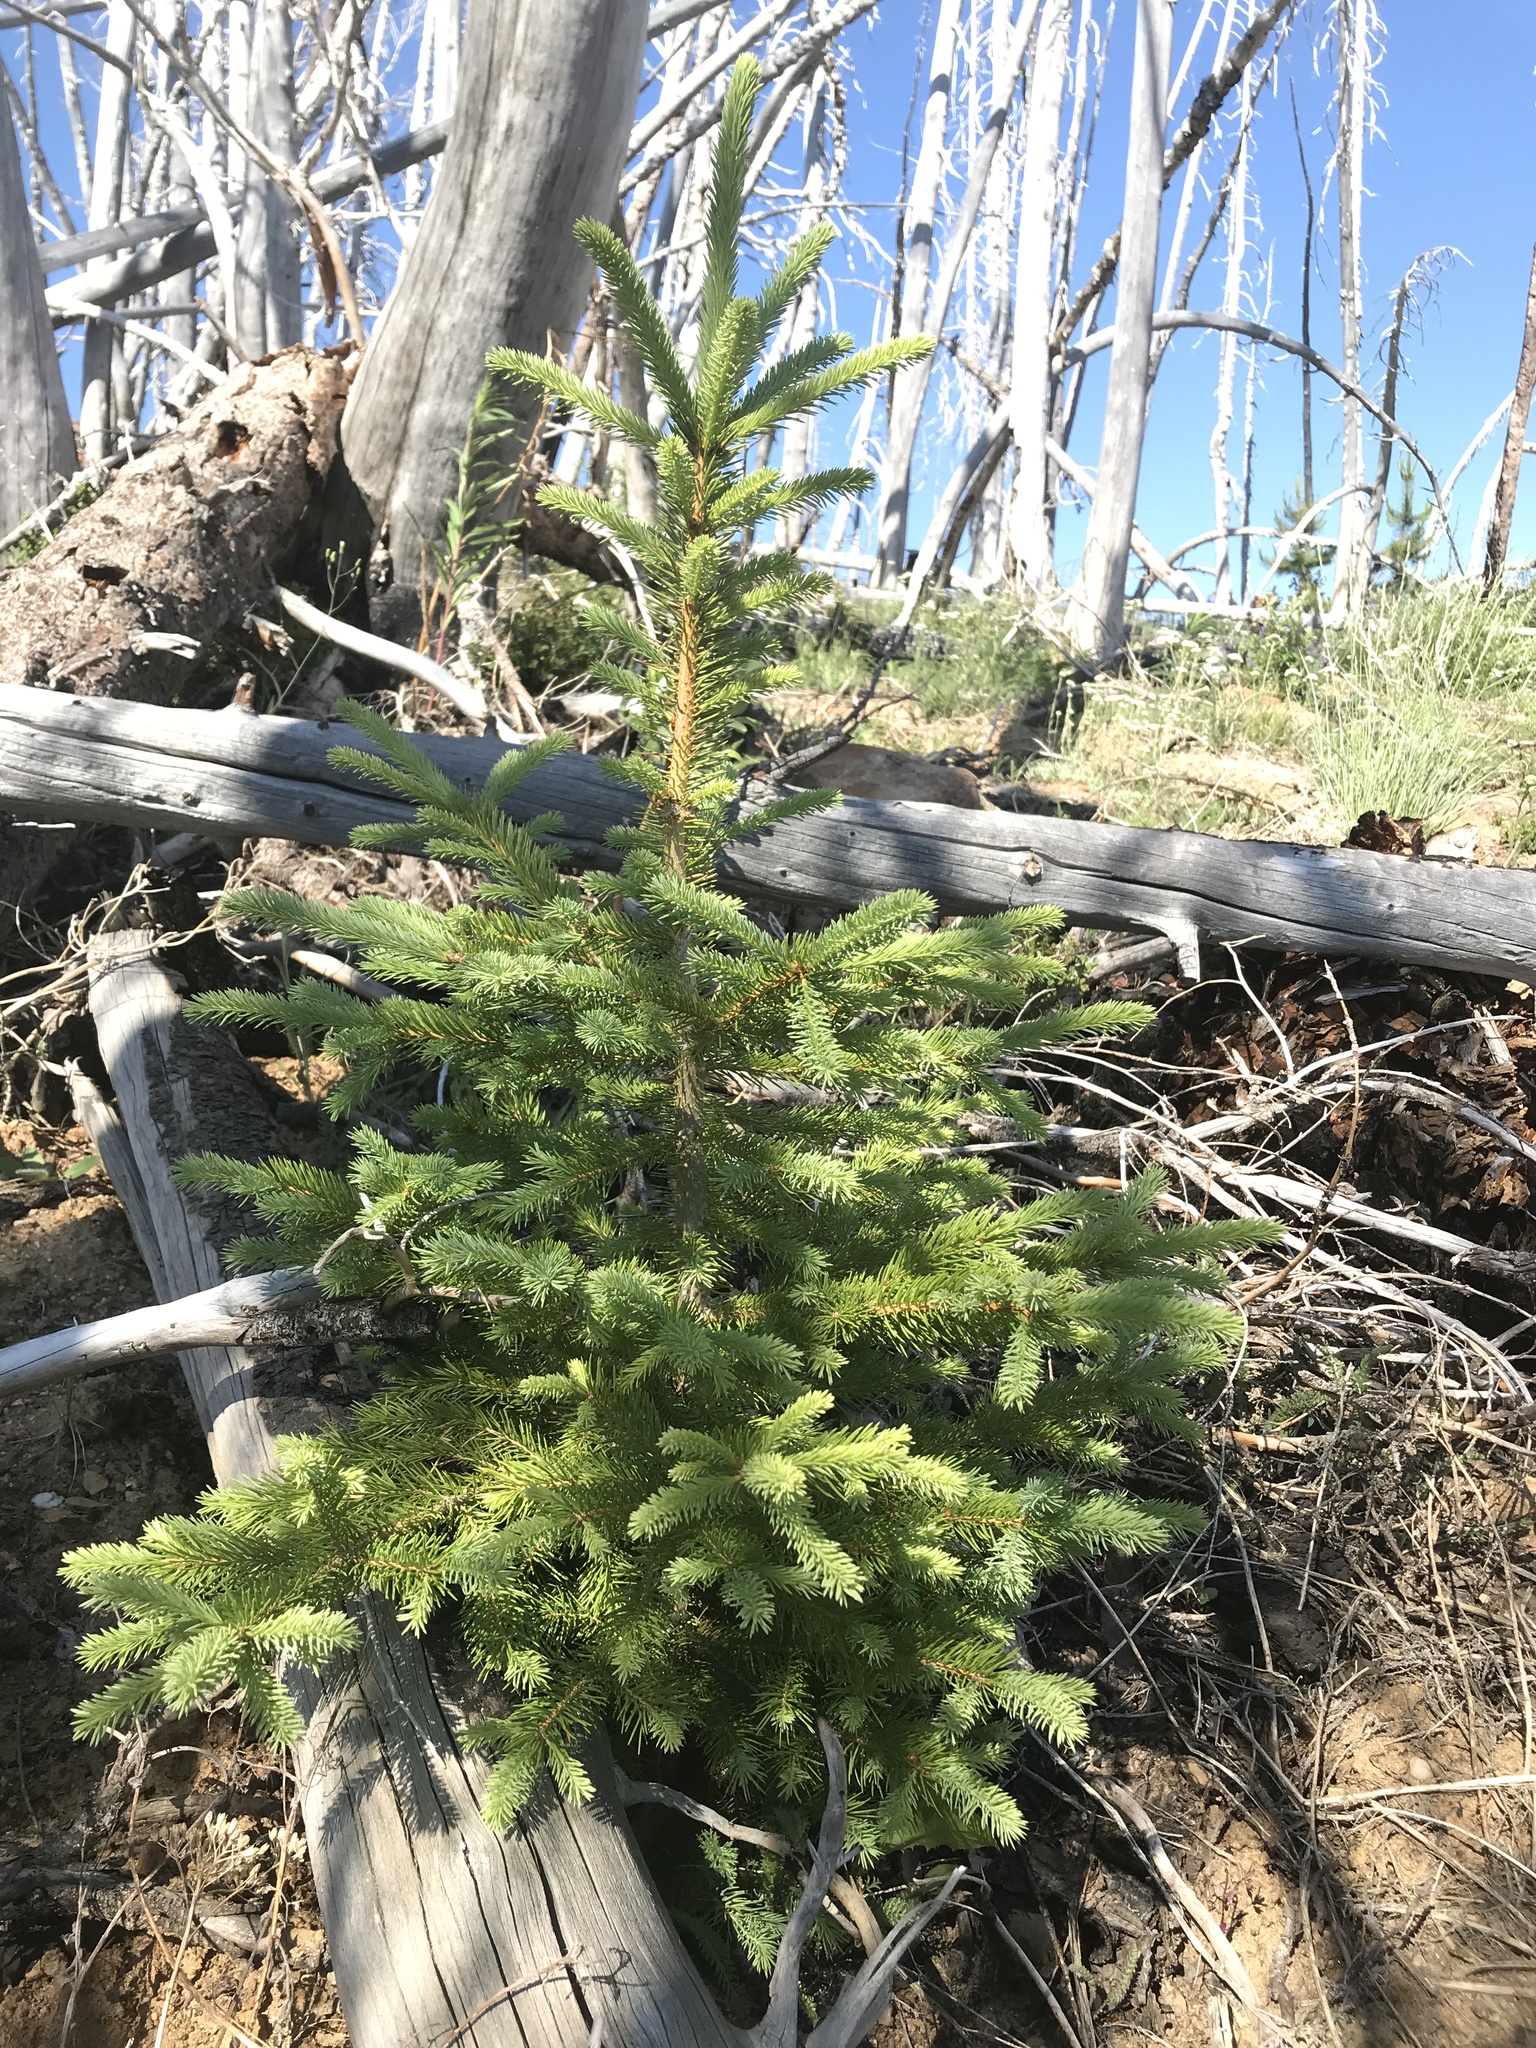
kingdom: Plantae
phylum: Tracheophyta
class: Pinopsida
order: Pinales
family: Pinaceae
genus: Picea
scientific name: Picea engelmannii
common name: Engelmann spruce
